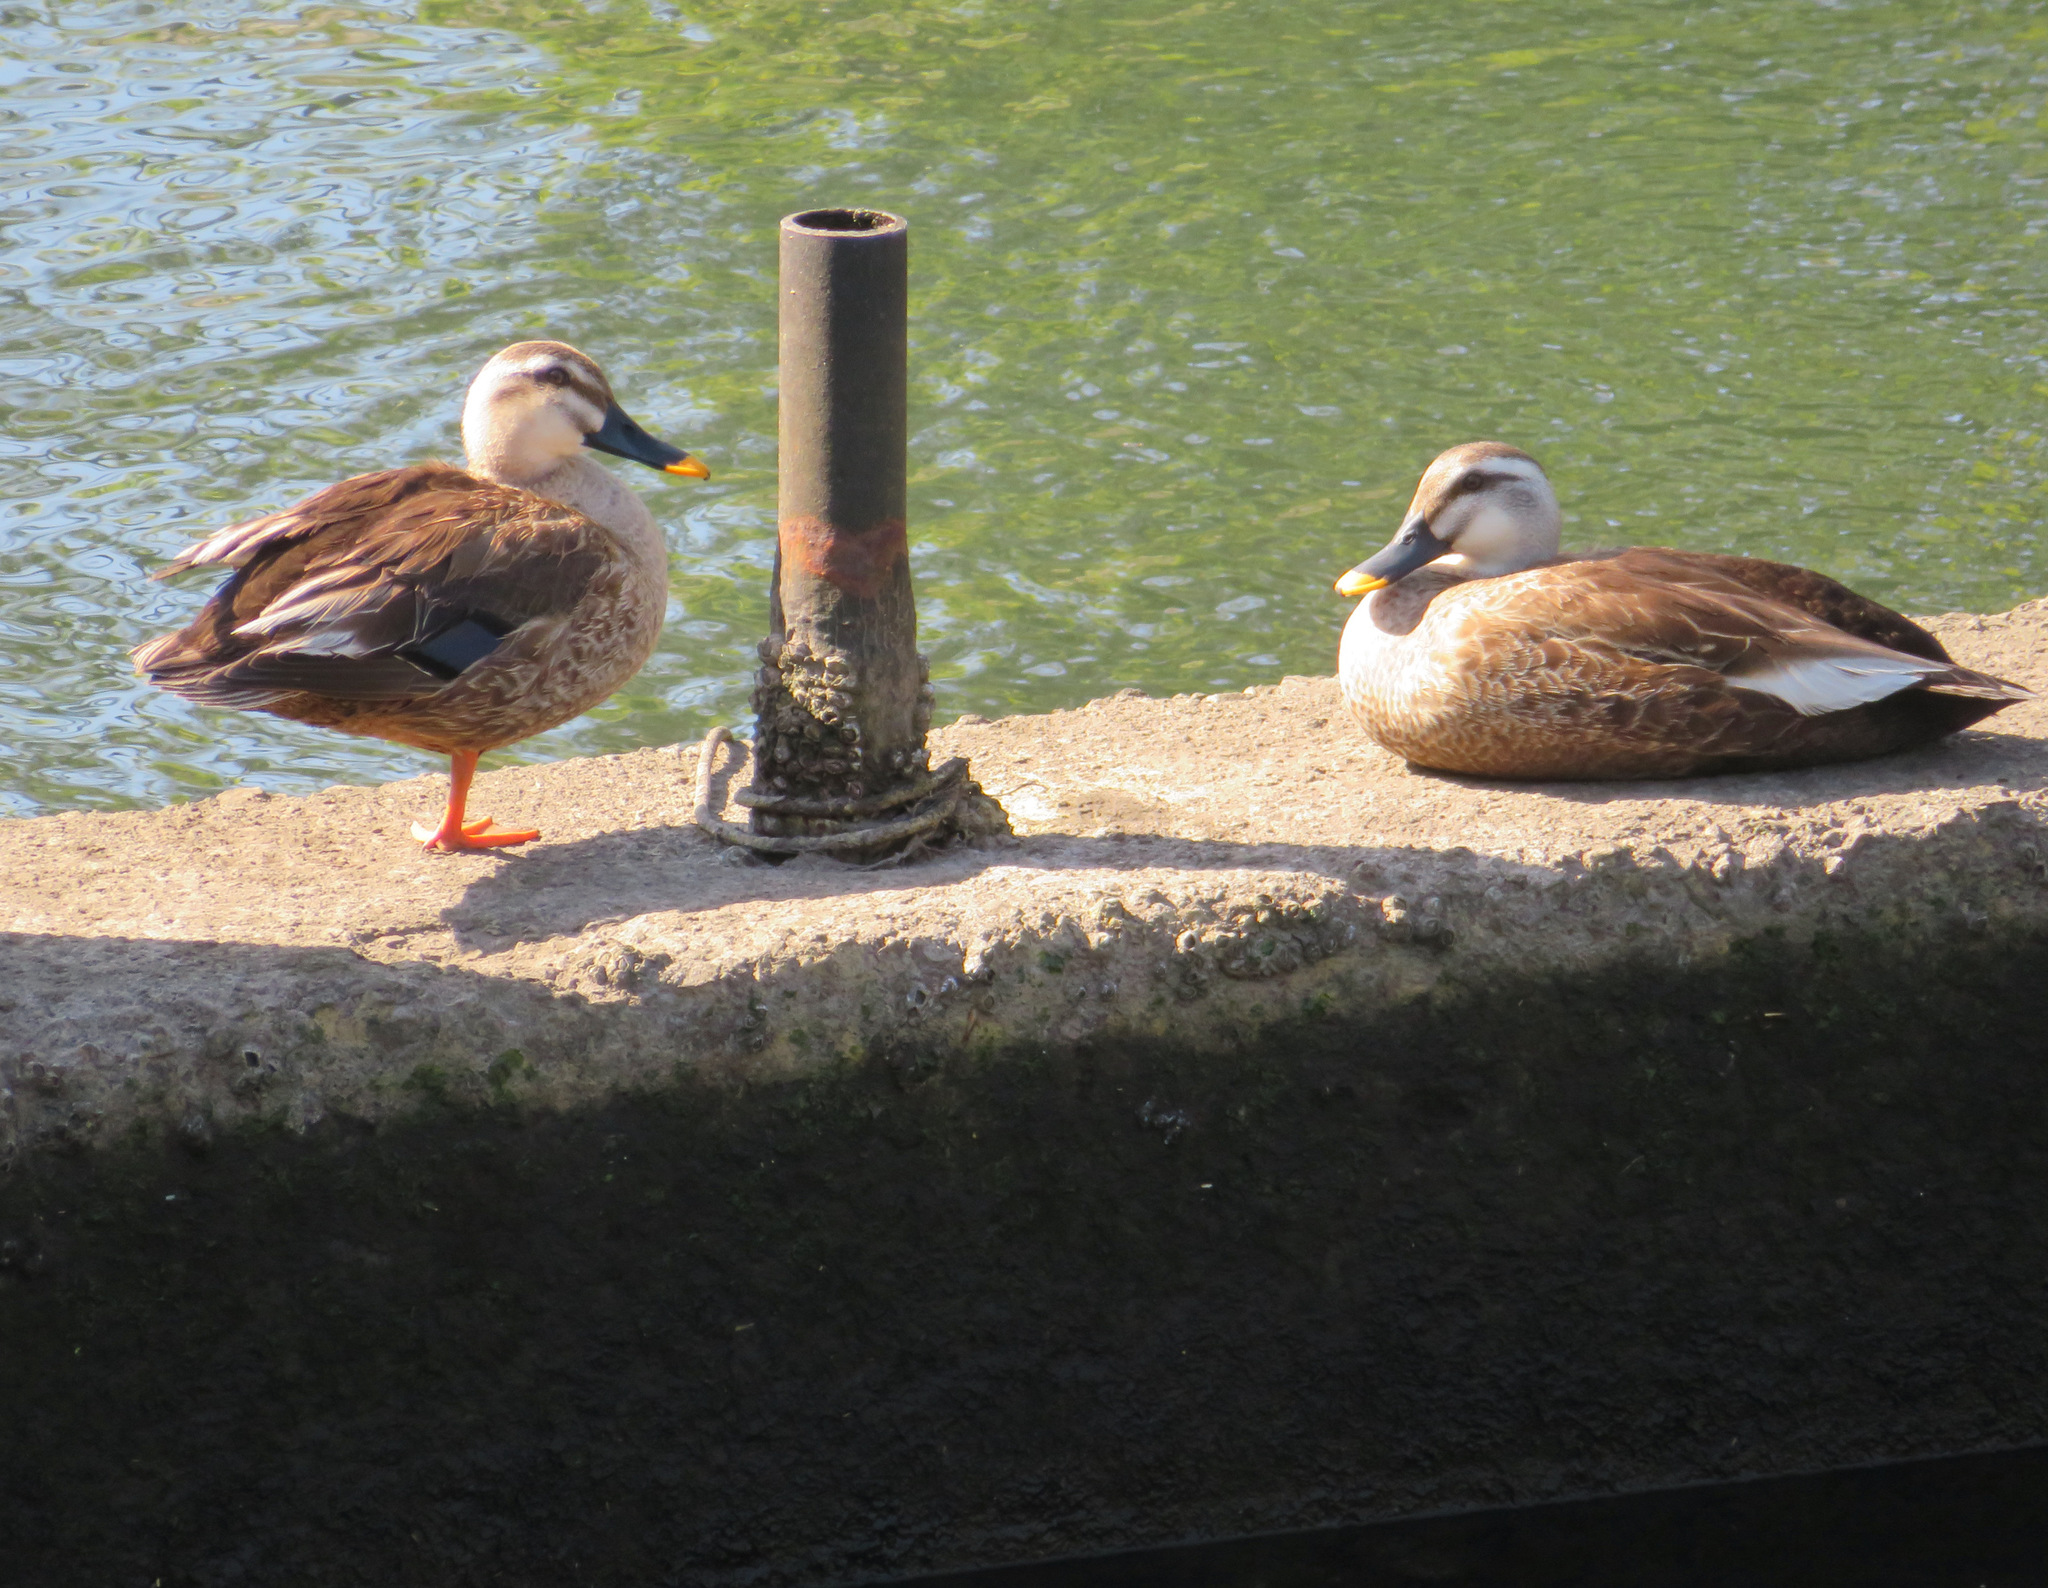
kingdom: Animalia
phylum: Chordata
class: Aves
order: Anseriformes
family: Anatidae
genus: Anas
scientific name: Anas zonorhyncha
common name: Eastern spot-billed duck
